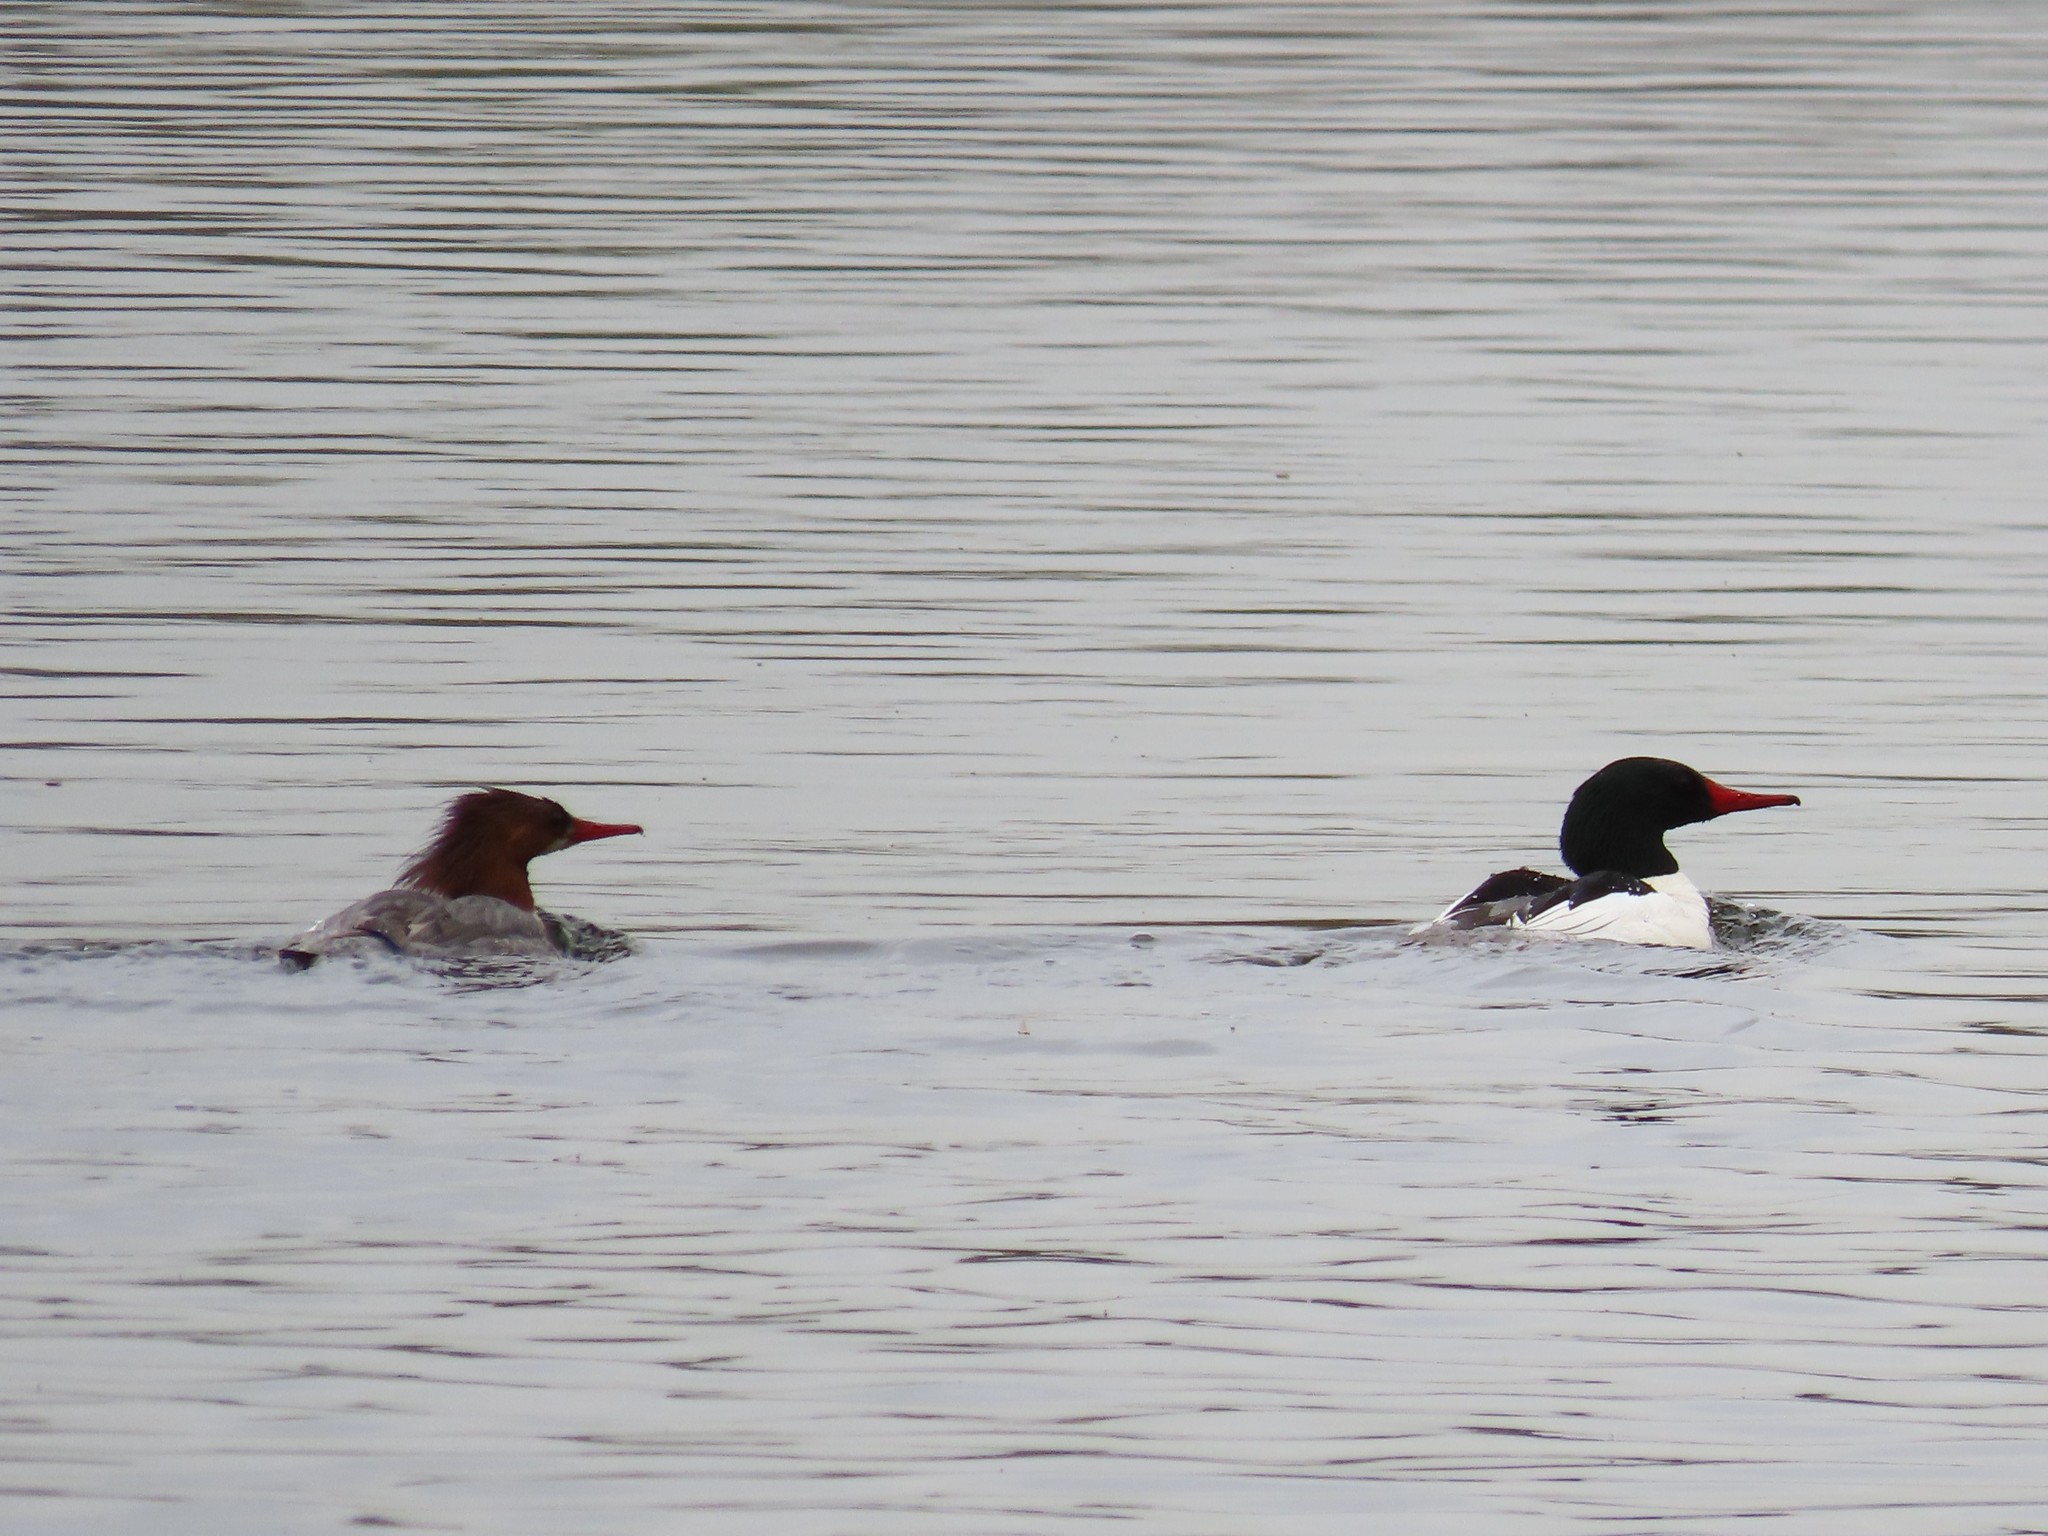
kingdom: Animalia
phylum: Chordata
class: Aves
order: Anseriformes
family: Anatidae
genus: Mergus
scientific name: Mergus merganser
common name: Common merganser
